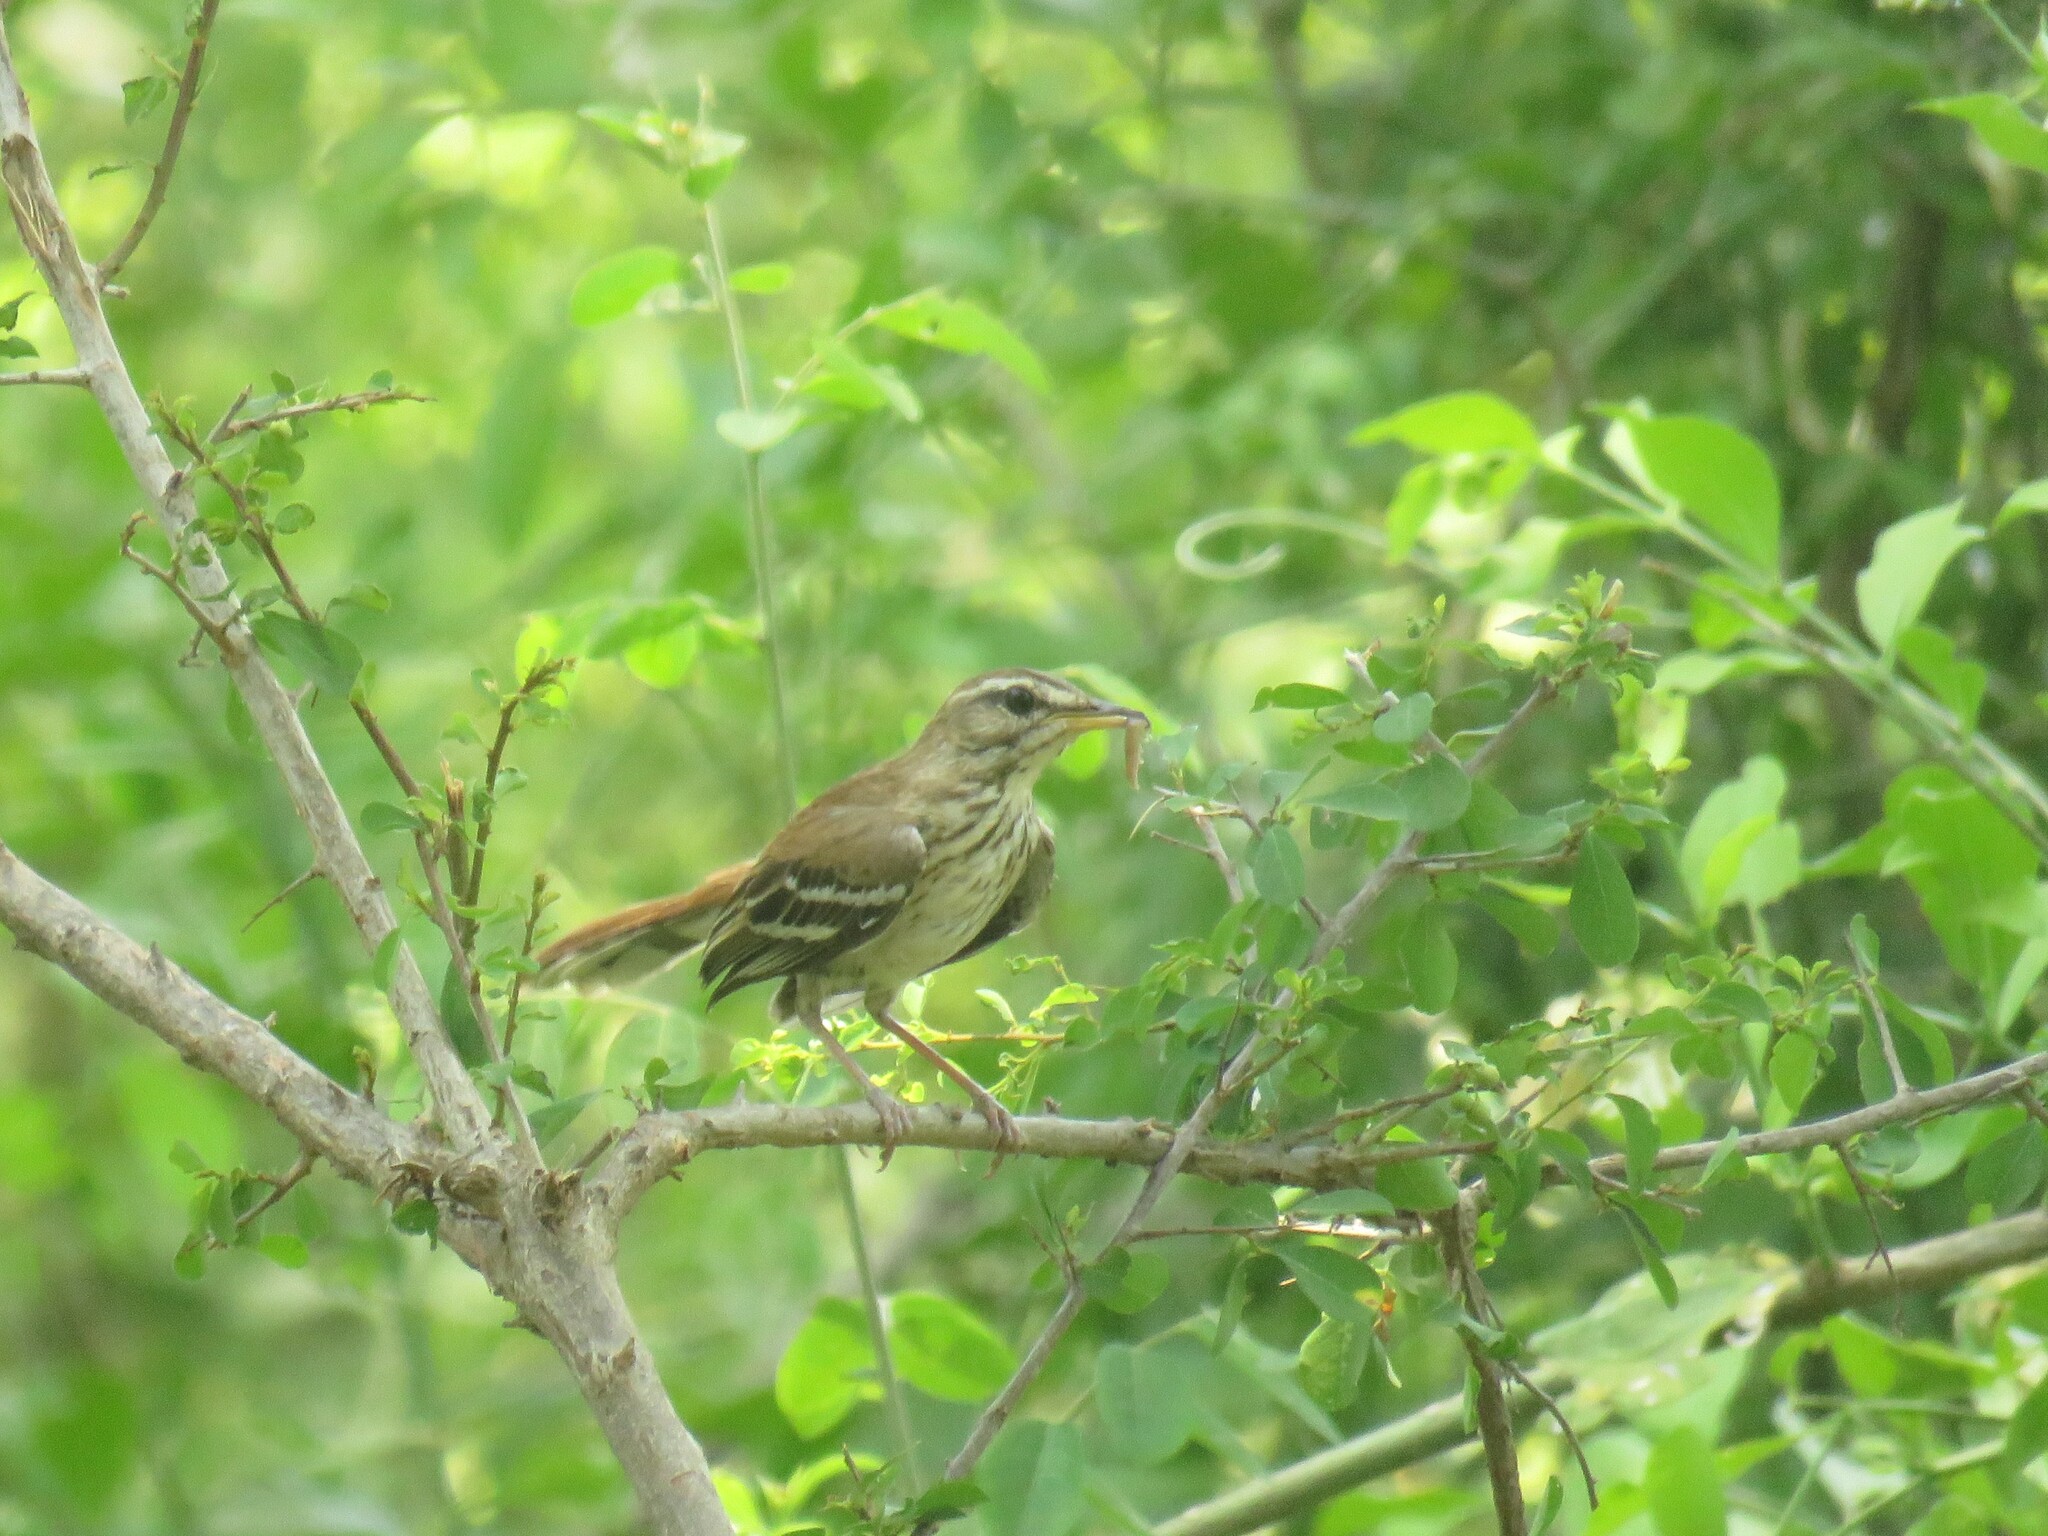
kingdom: Animalia
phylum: Chordata
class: Aves
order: Passeriformes
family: Muscicapidae
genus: Erythropygia
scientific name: Erythropygia leucophrys
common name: White-browed scrub robin
